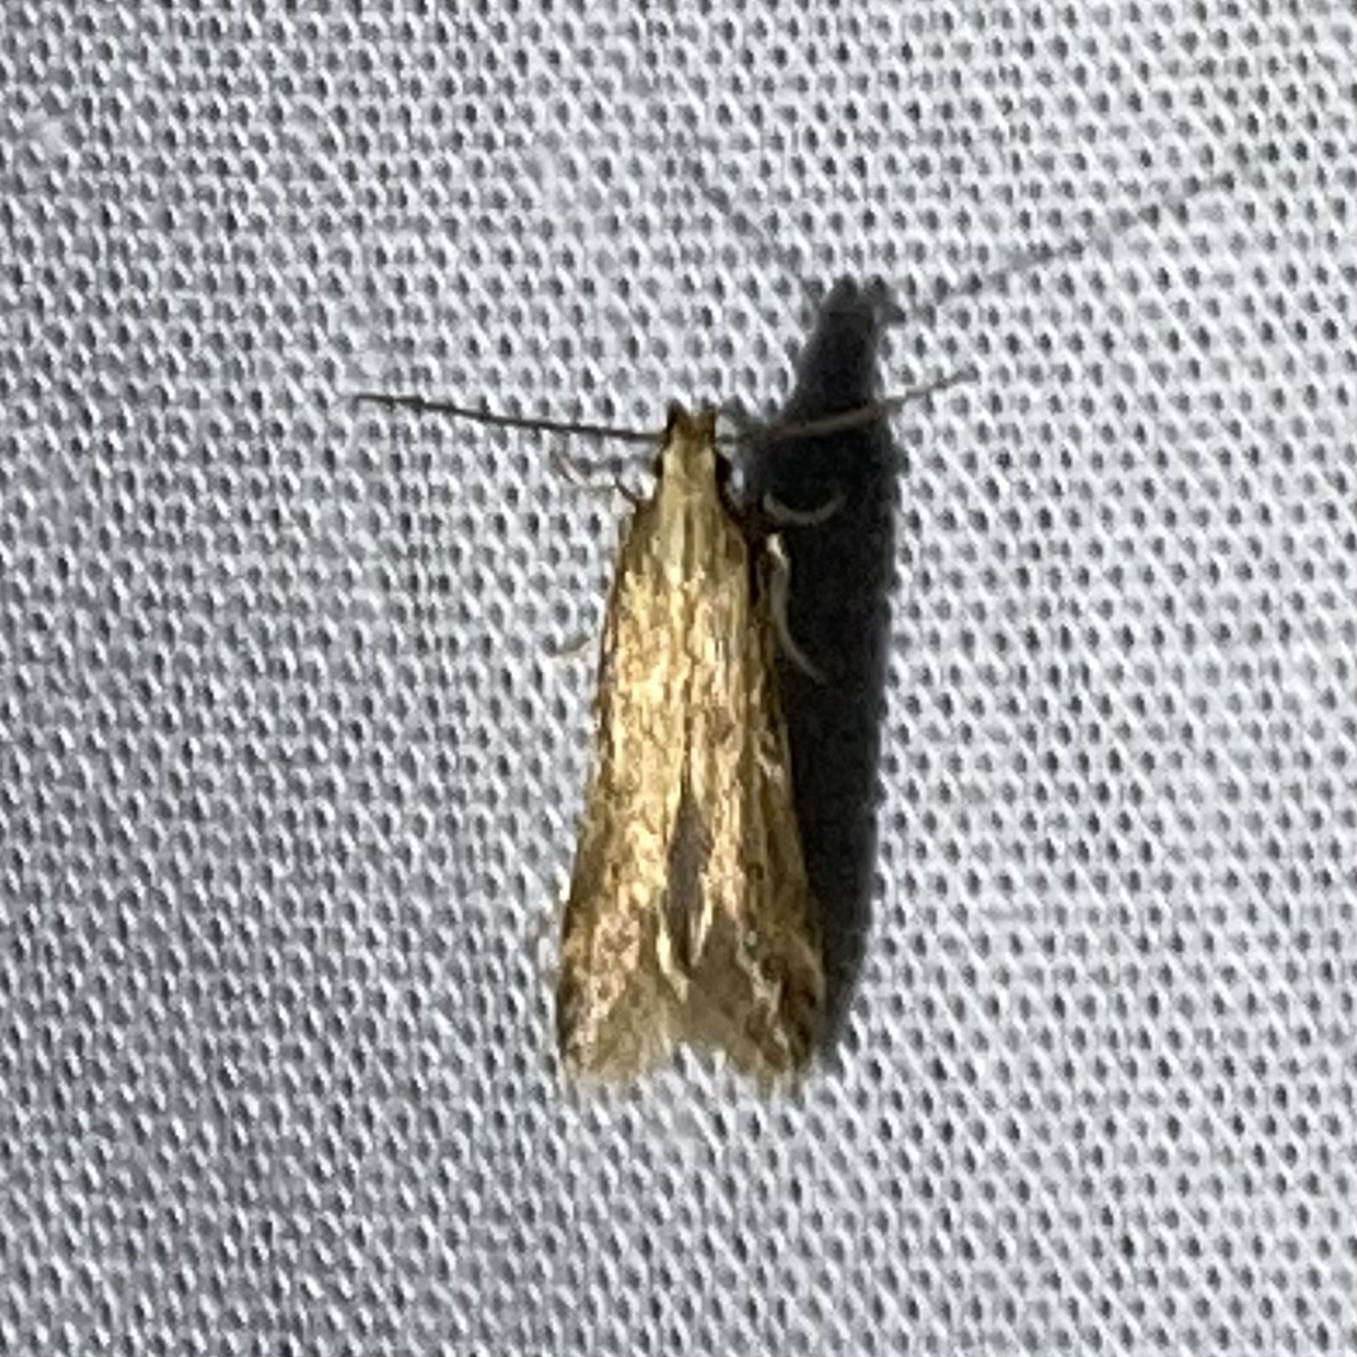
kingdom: Animalia
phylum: Arthropoda
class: Insecta
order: Lepidoptera
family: Gelechiidae
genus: Metzneria
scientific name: Metzneria lappella
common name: Burdock neb
